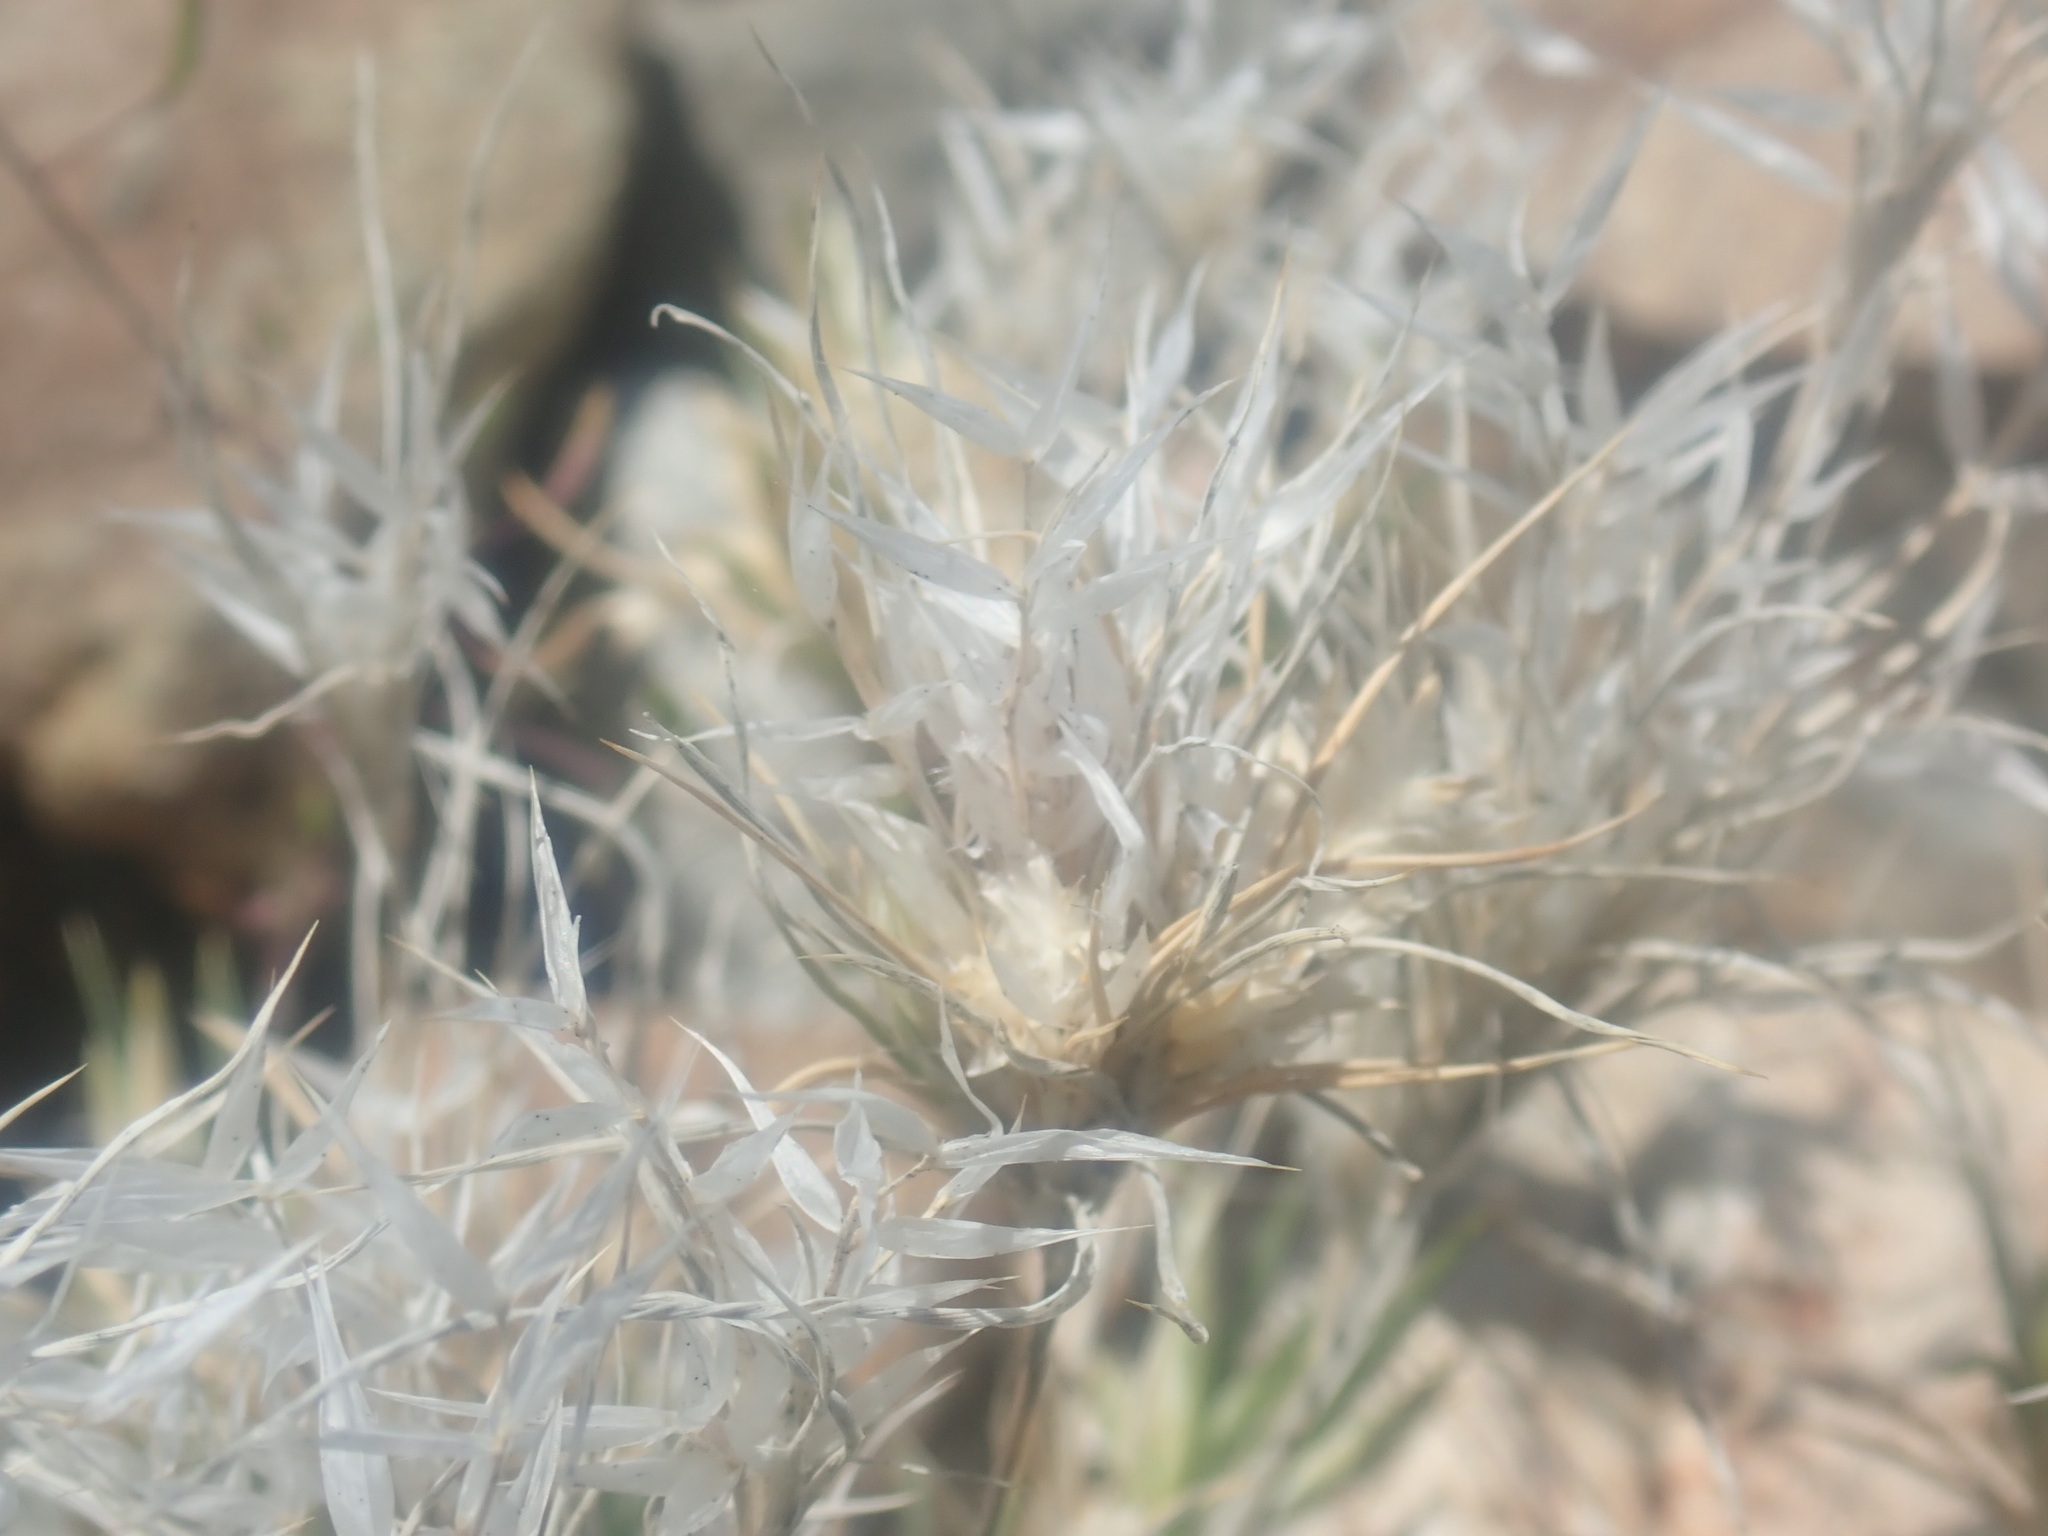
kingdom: Plantae
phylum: Tracheophyta
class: Liliopsida
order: Poales
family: Poaceae
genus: Dasyochloa
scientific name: Dasyochloa pulchella
